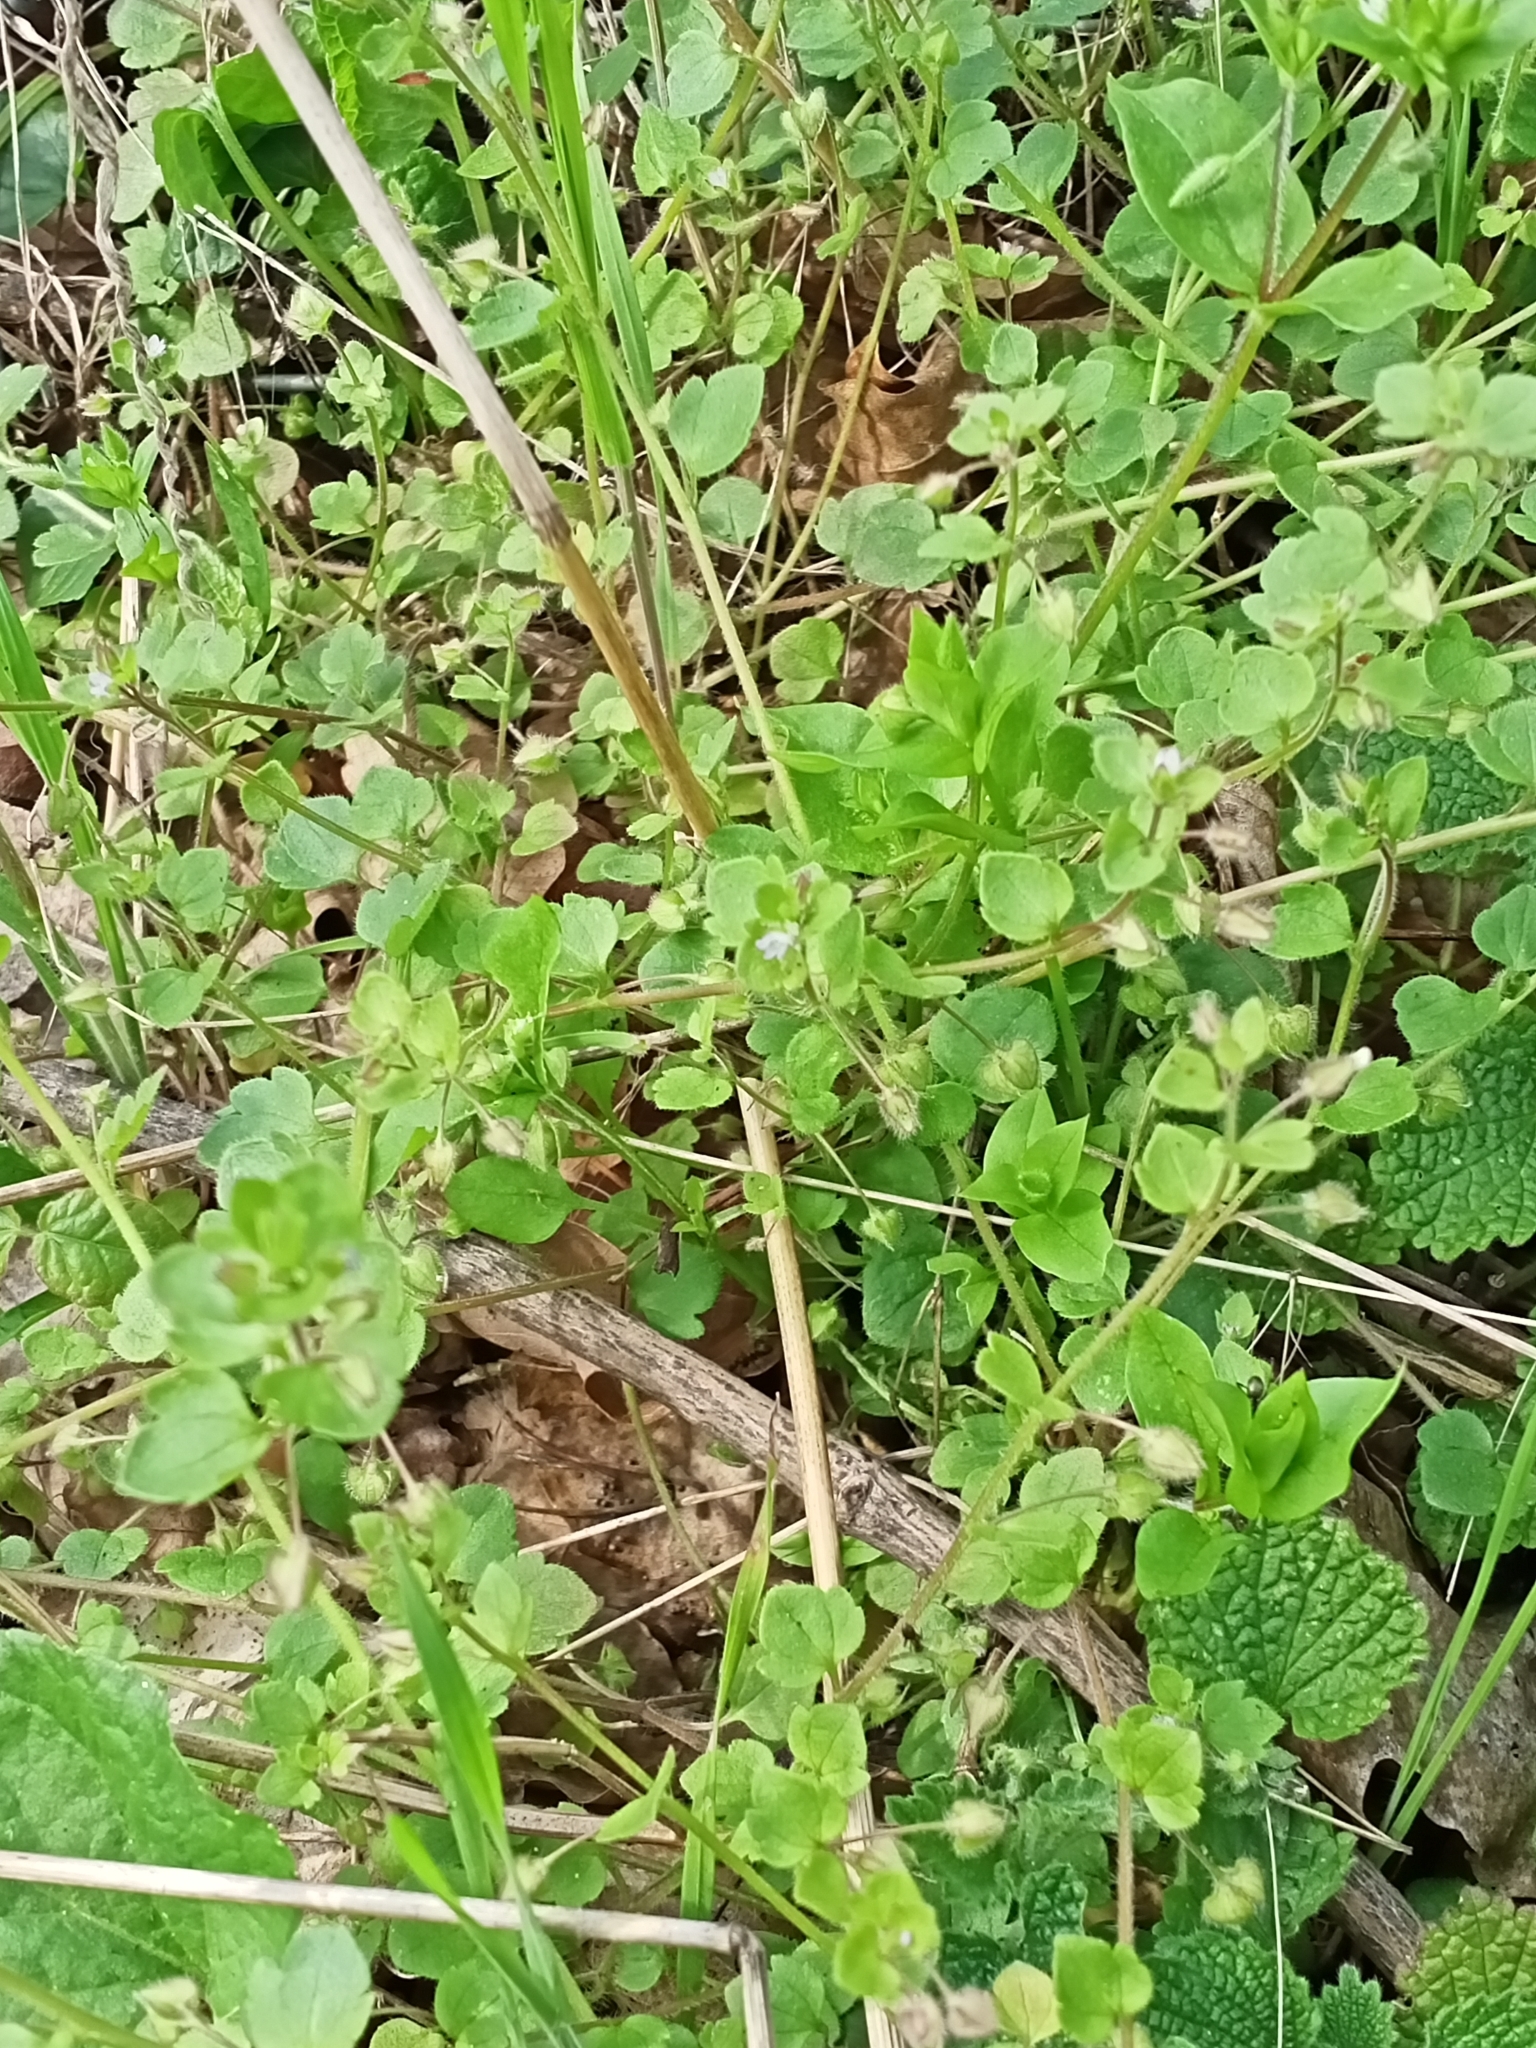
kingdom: Plantae
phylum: Tracheophyta
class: Magnoliopsida
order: Lamiales
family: Plantaginaceae
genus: Veronica
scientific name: Veronica sublobata
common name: False ivy-leaved speedwell
